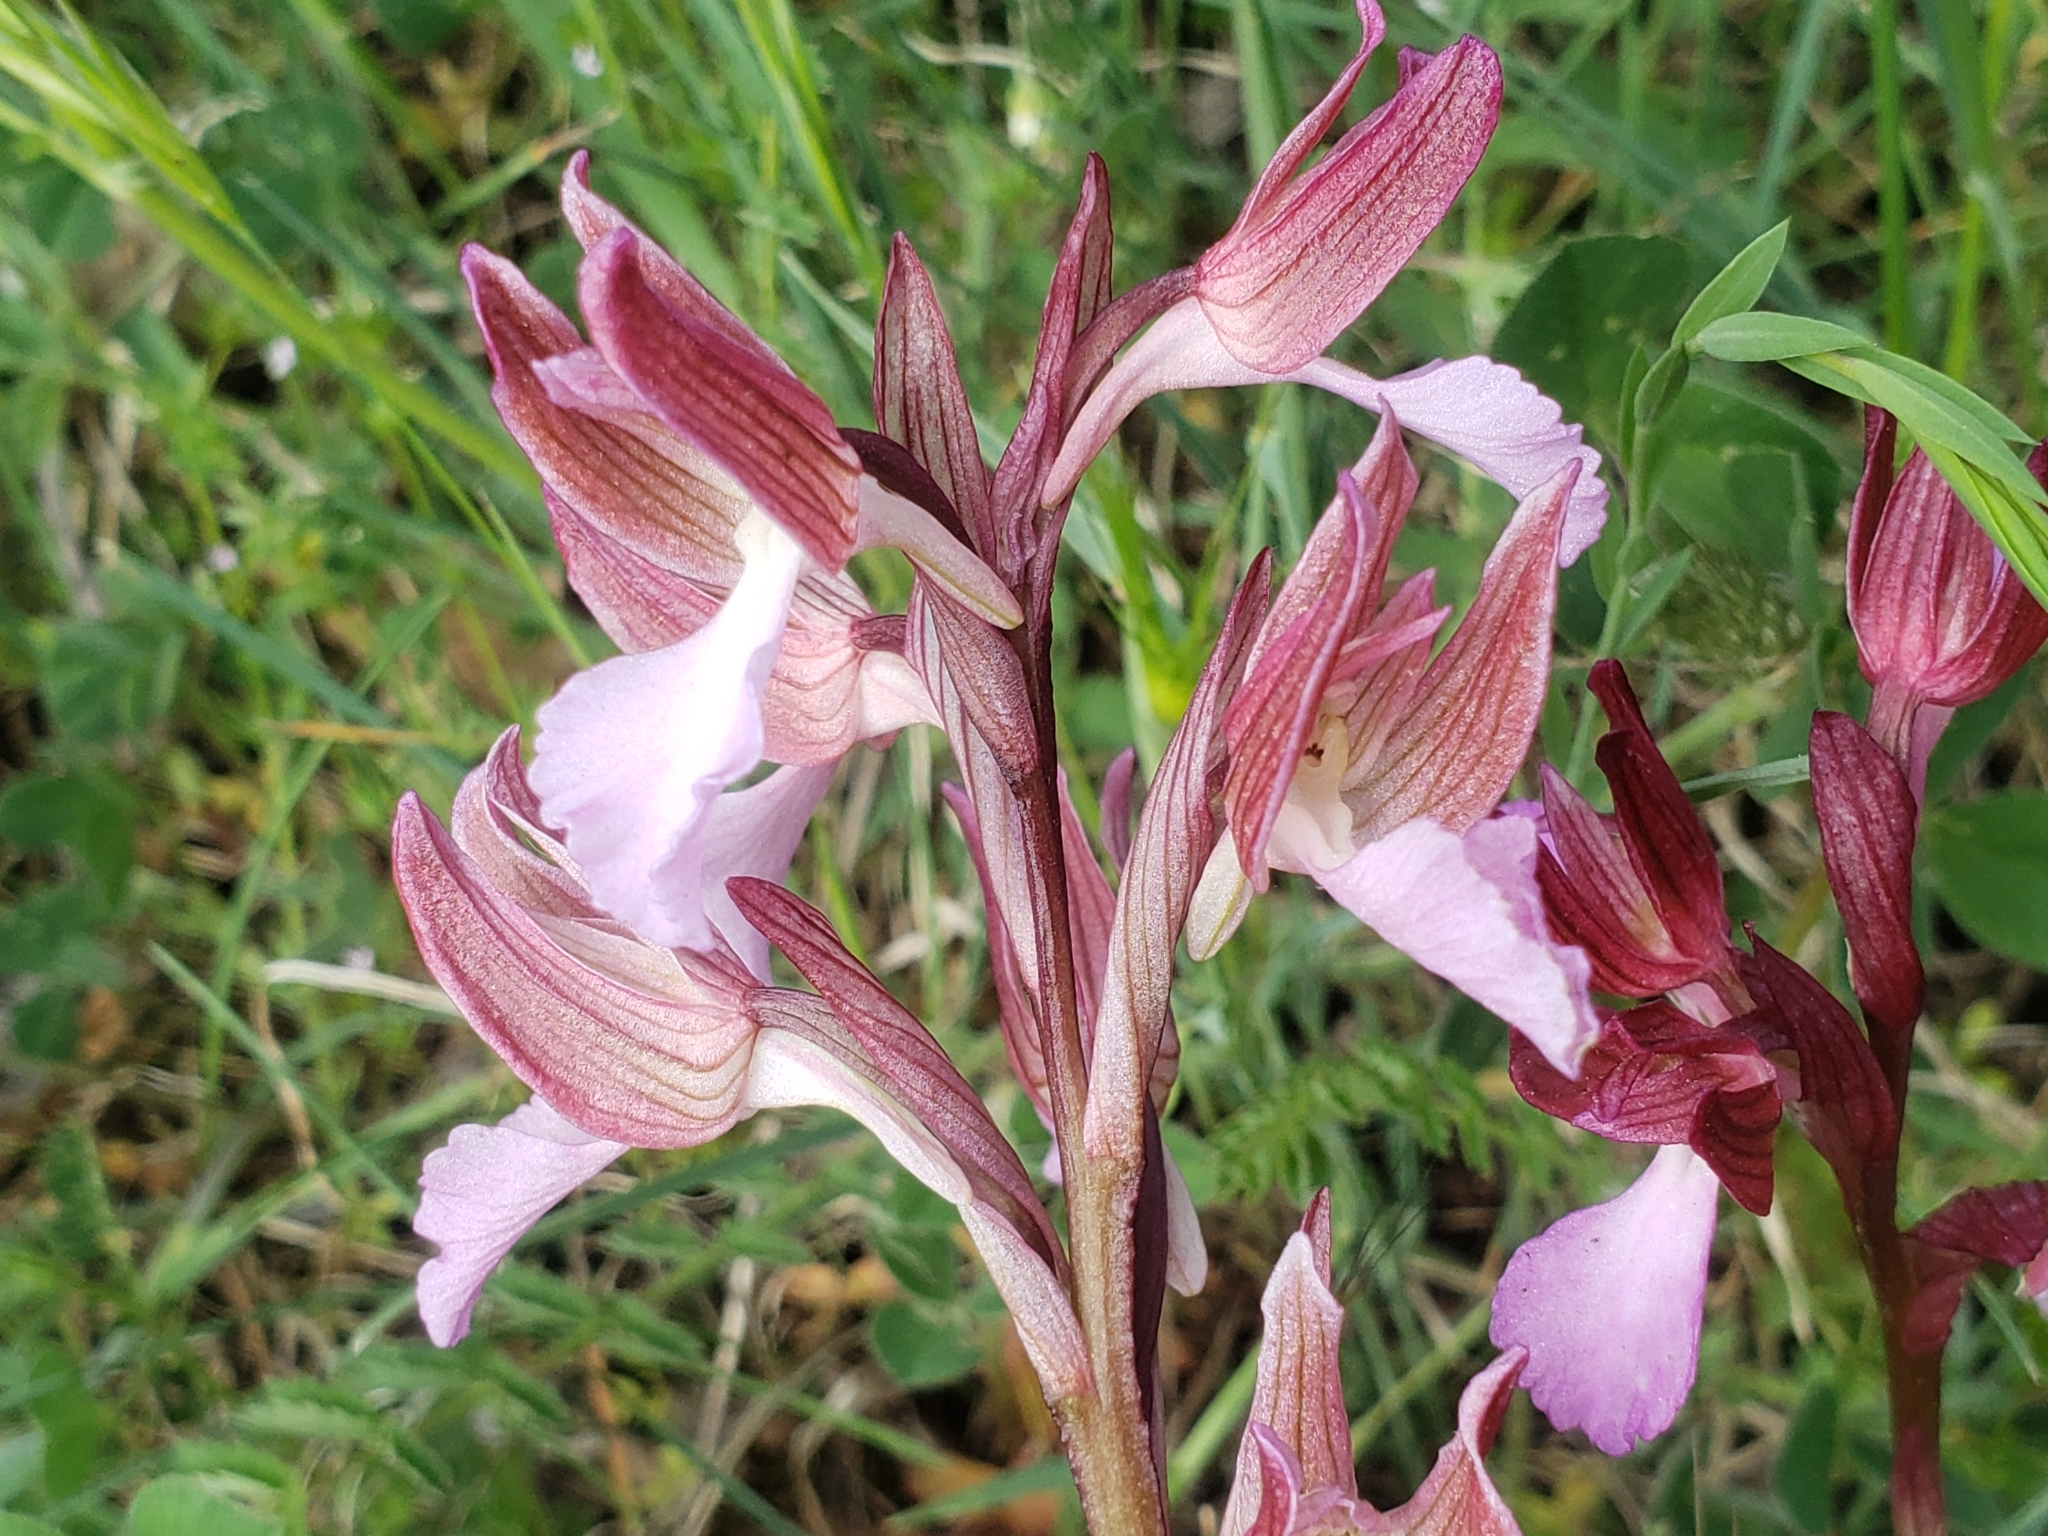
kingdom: Plantae
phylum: Tracheophyta
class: Liliopsida
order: Asparagales
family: Orchidaceae
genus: Anacamptis
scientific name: Anacamptis papilionacea
